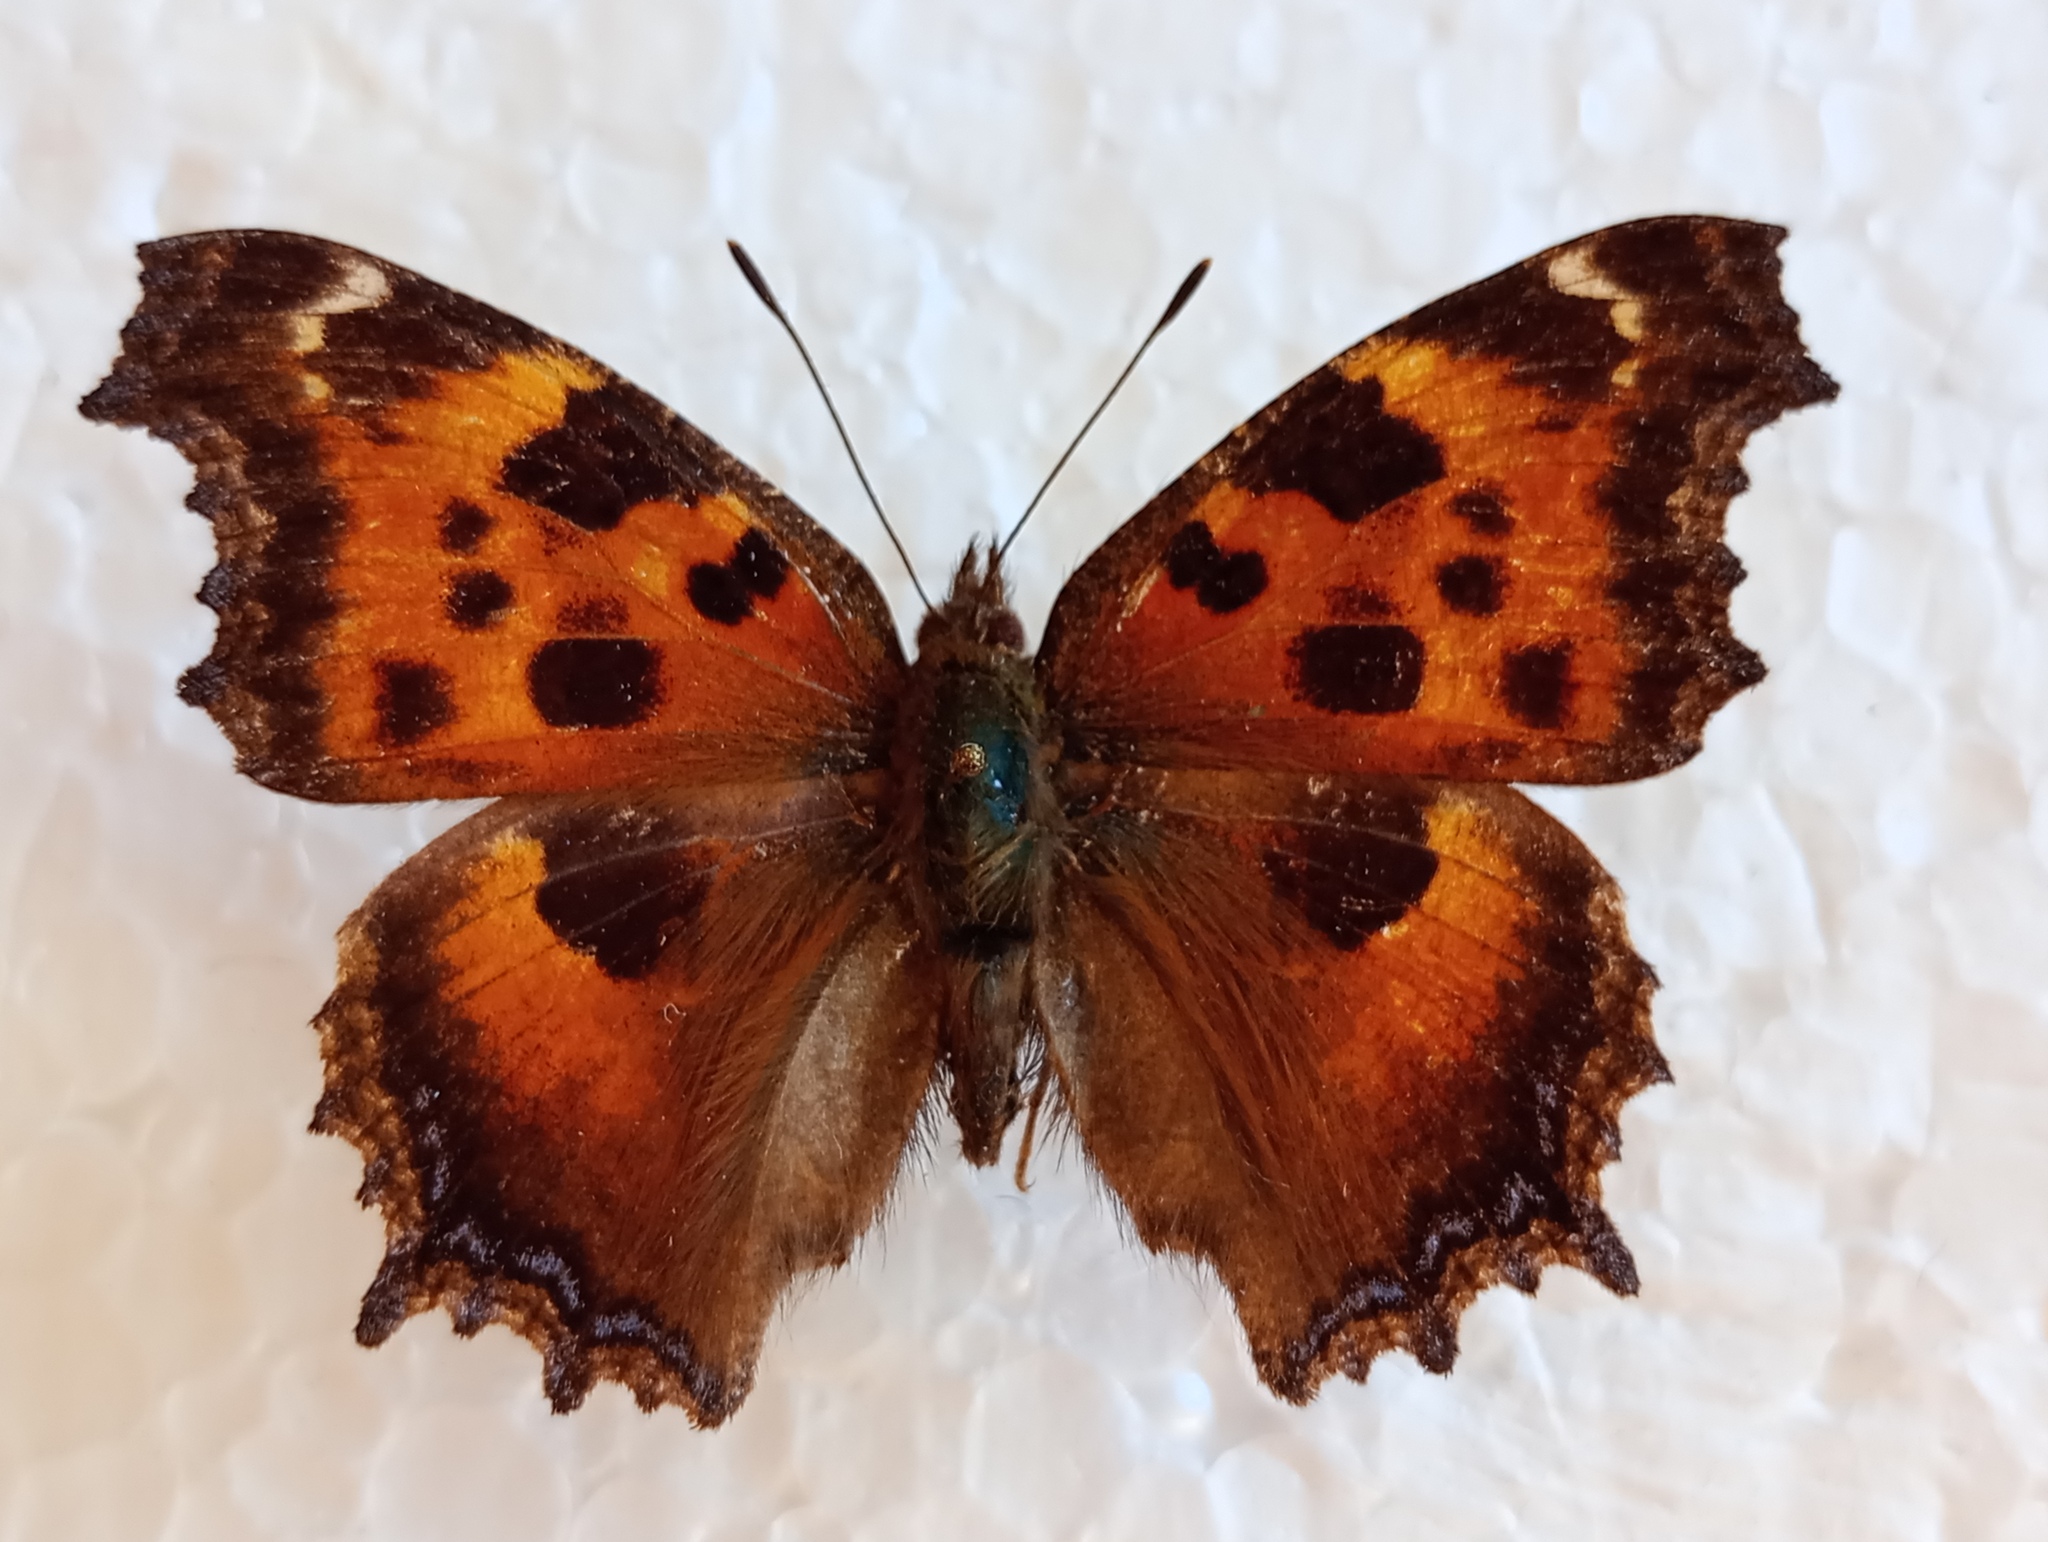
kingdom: Animalia
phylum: Arthropoda
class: Insecta
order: Lepidoptera
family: Nymphalidae
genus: Nymphalis
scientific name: Nymphalis xanthomelas
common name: Scarce tortoiseshell
